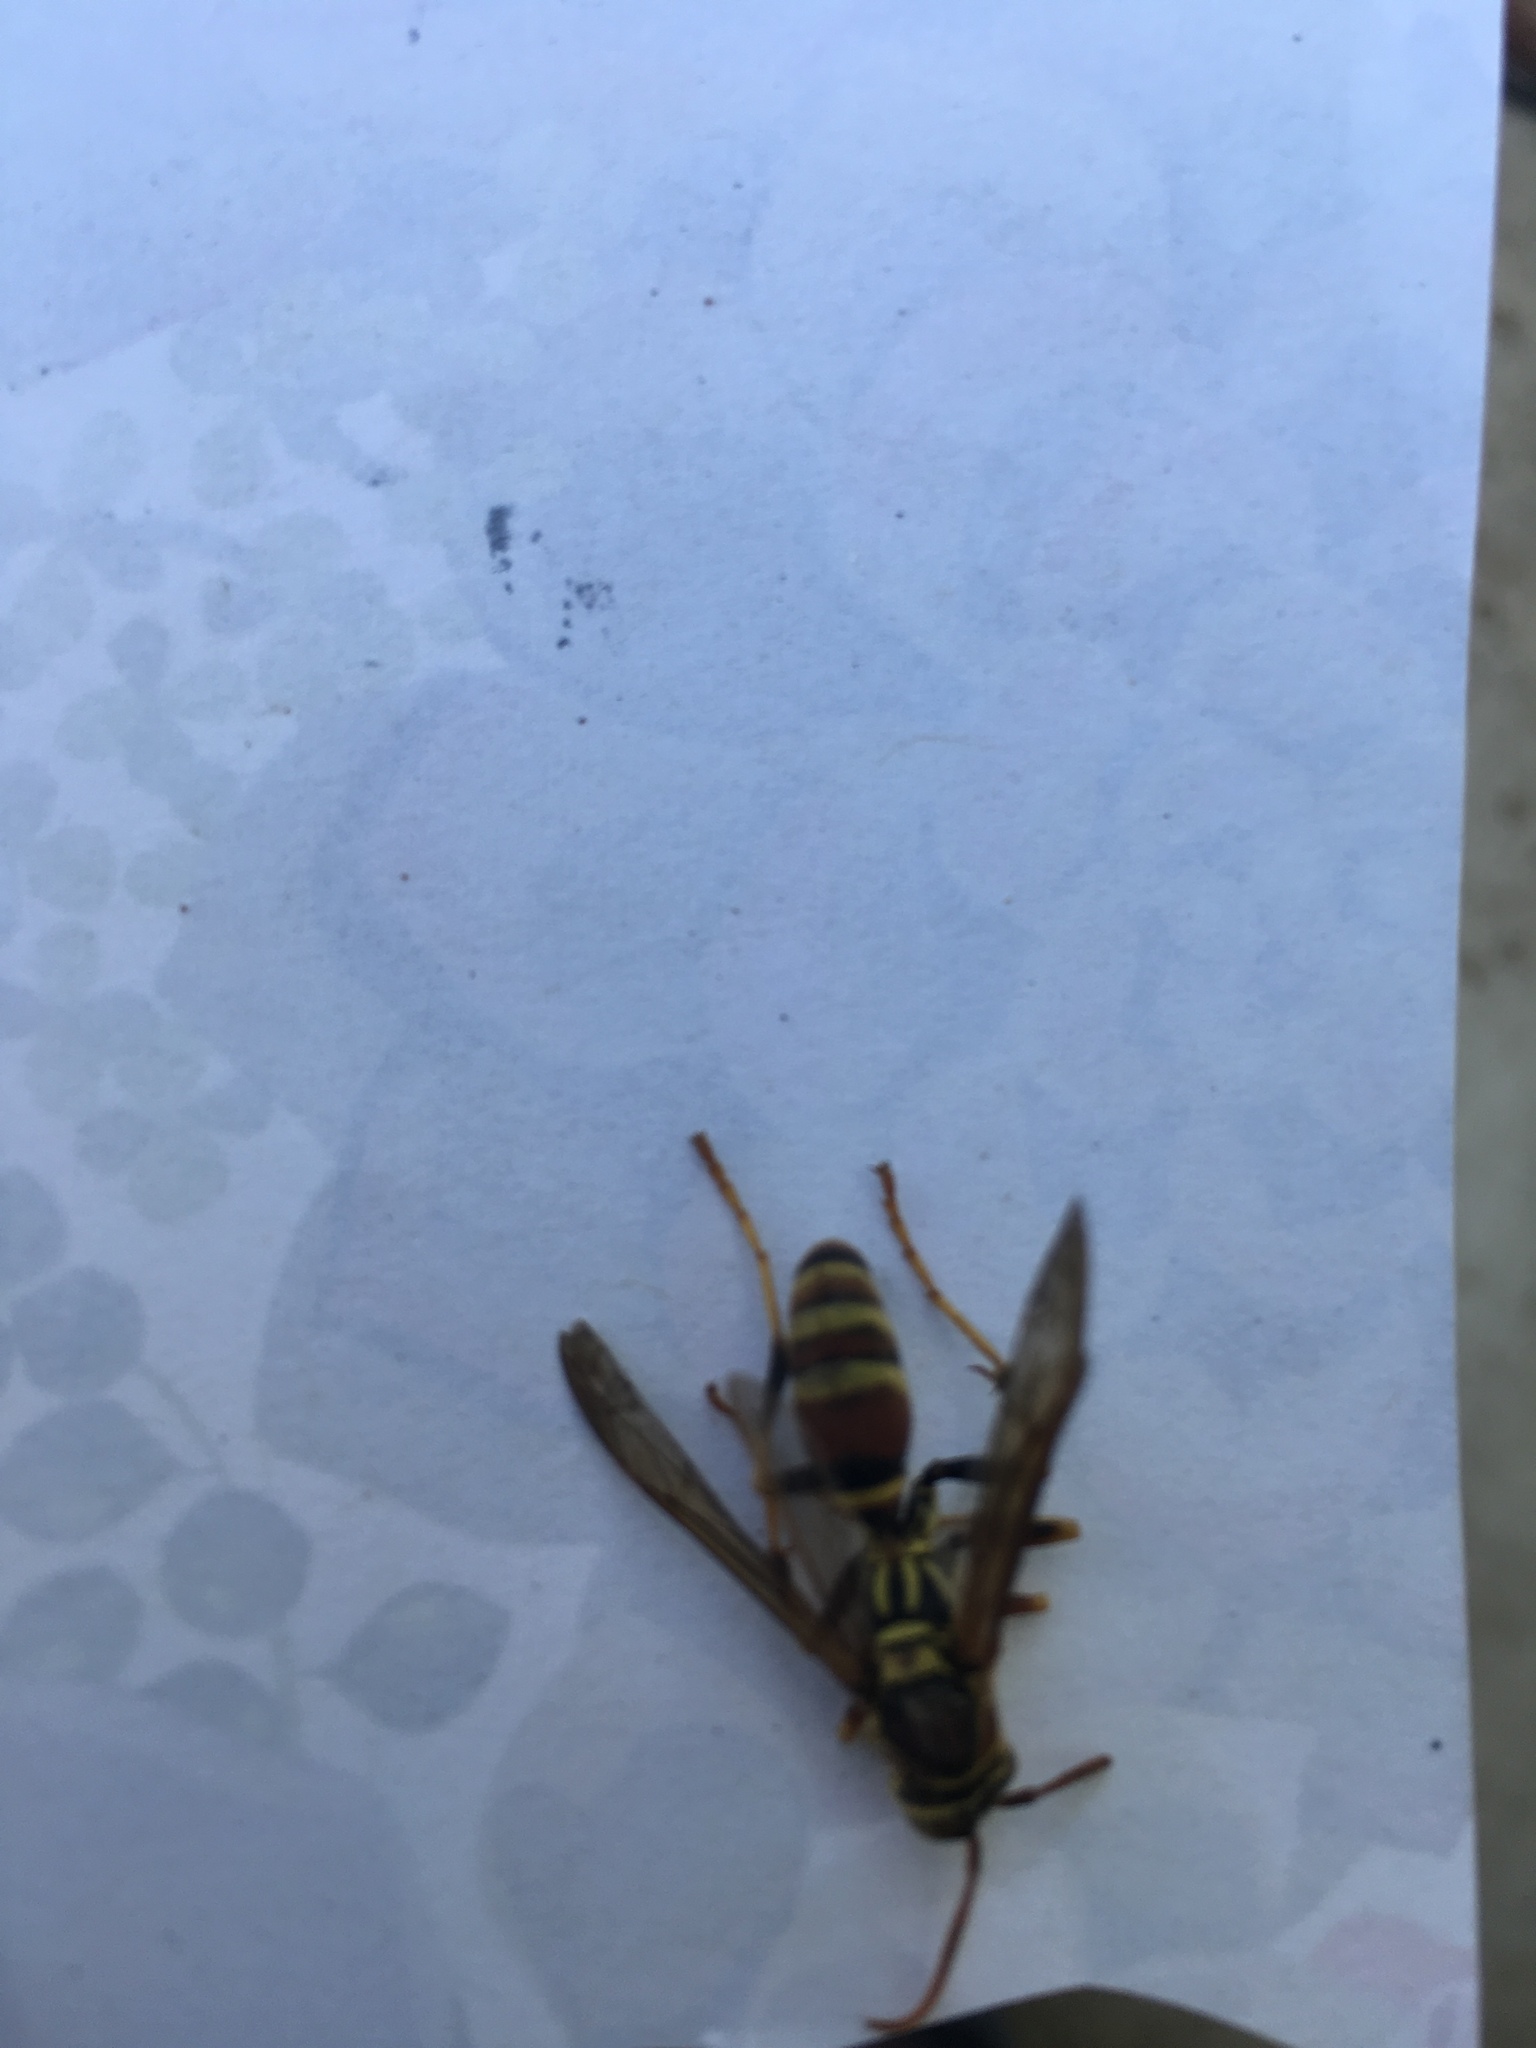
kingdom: Animalia
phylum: Arthropoda
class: Insecta
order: Hymenoptera
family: Eumenidae
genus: Polistes
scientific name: Polistes exclamans
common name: Paper wasp
